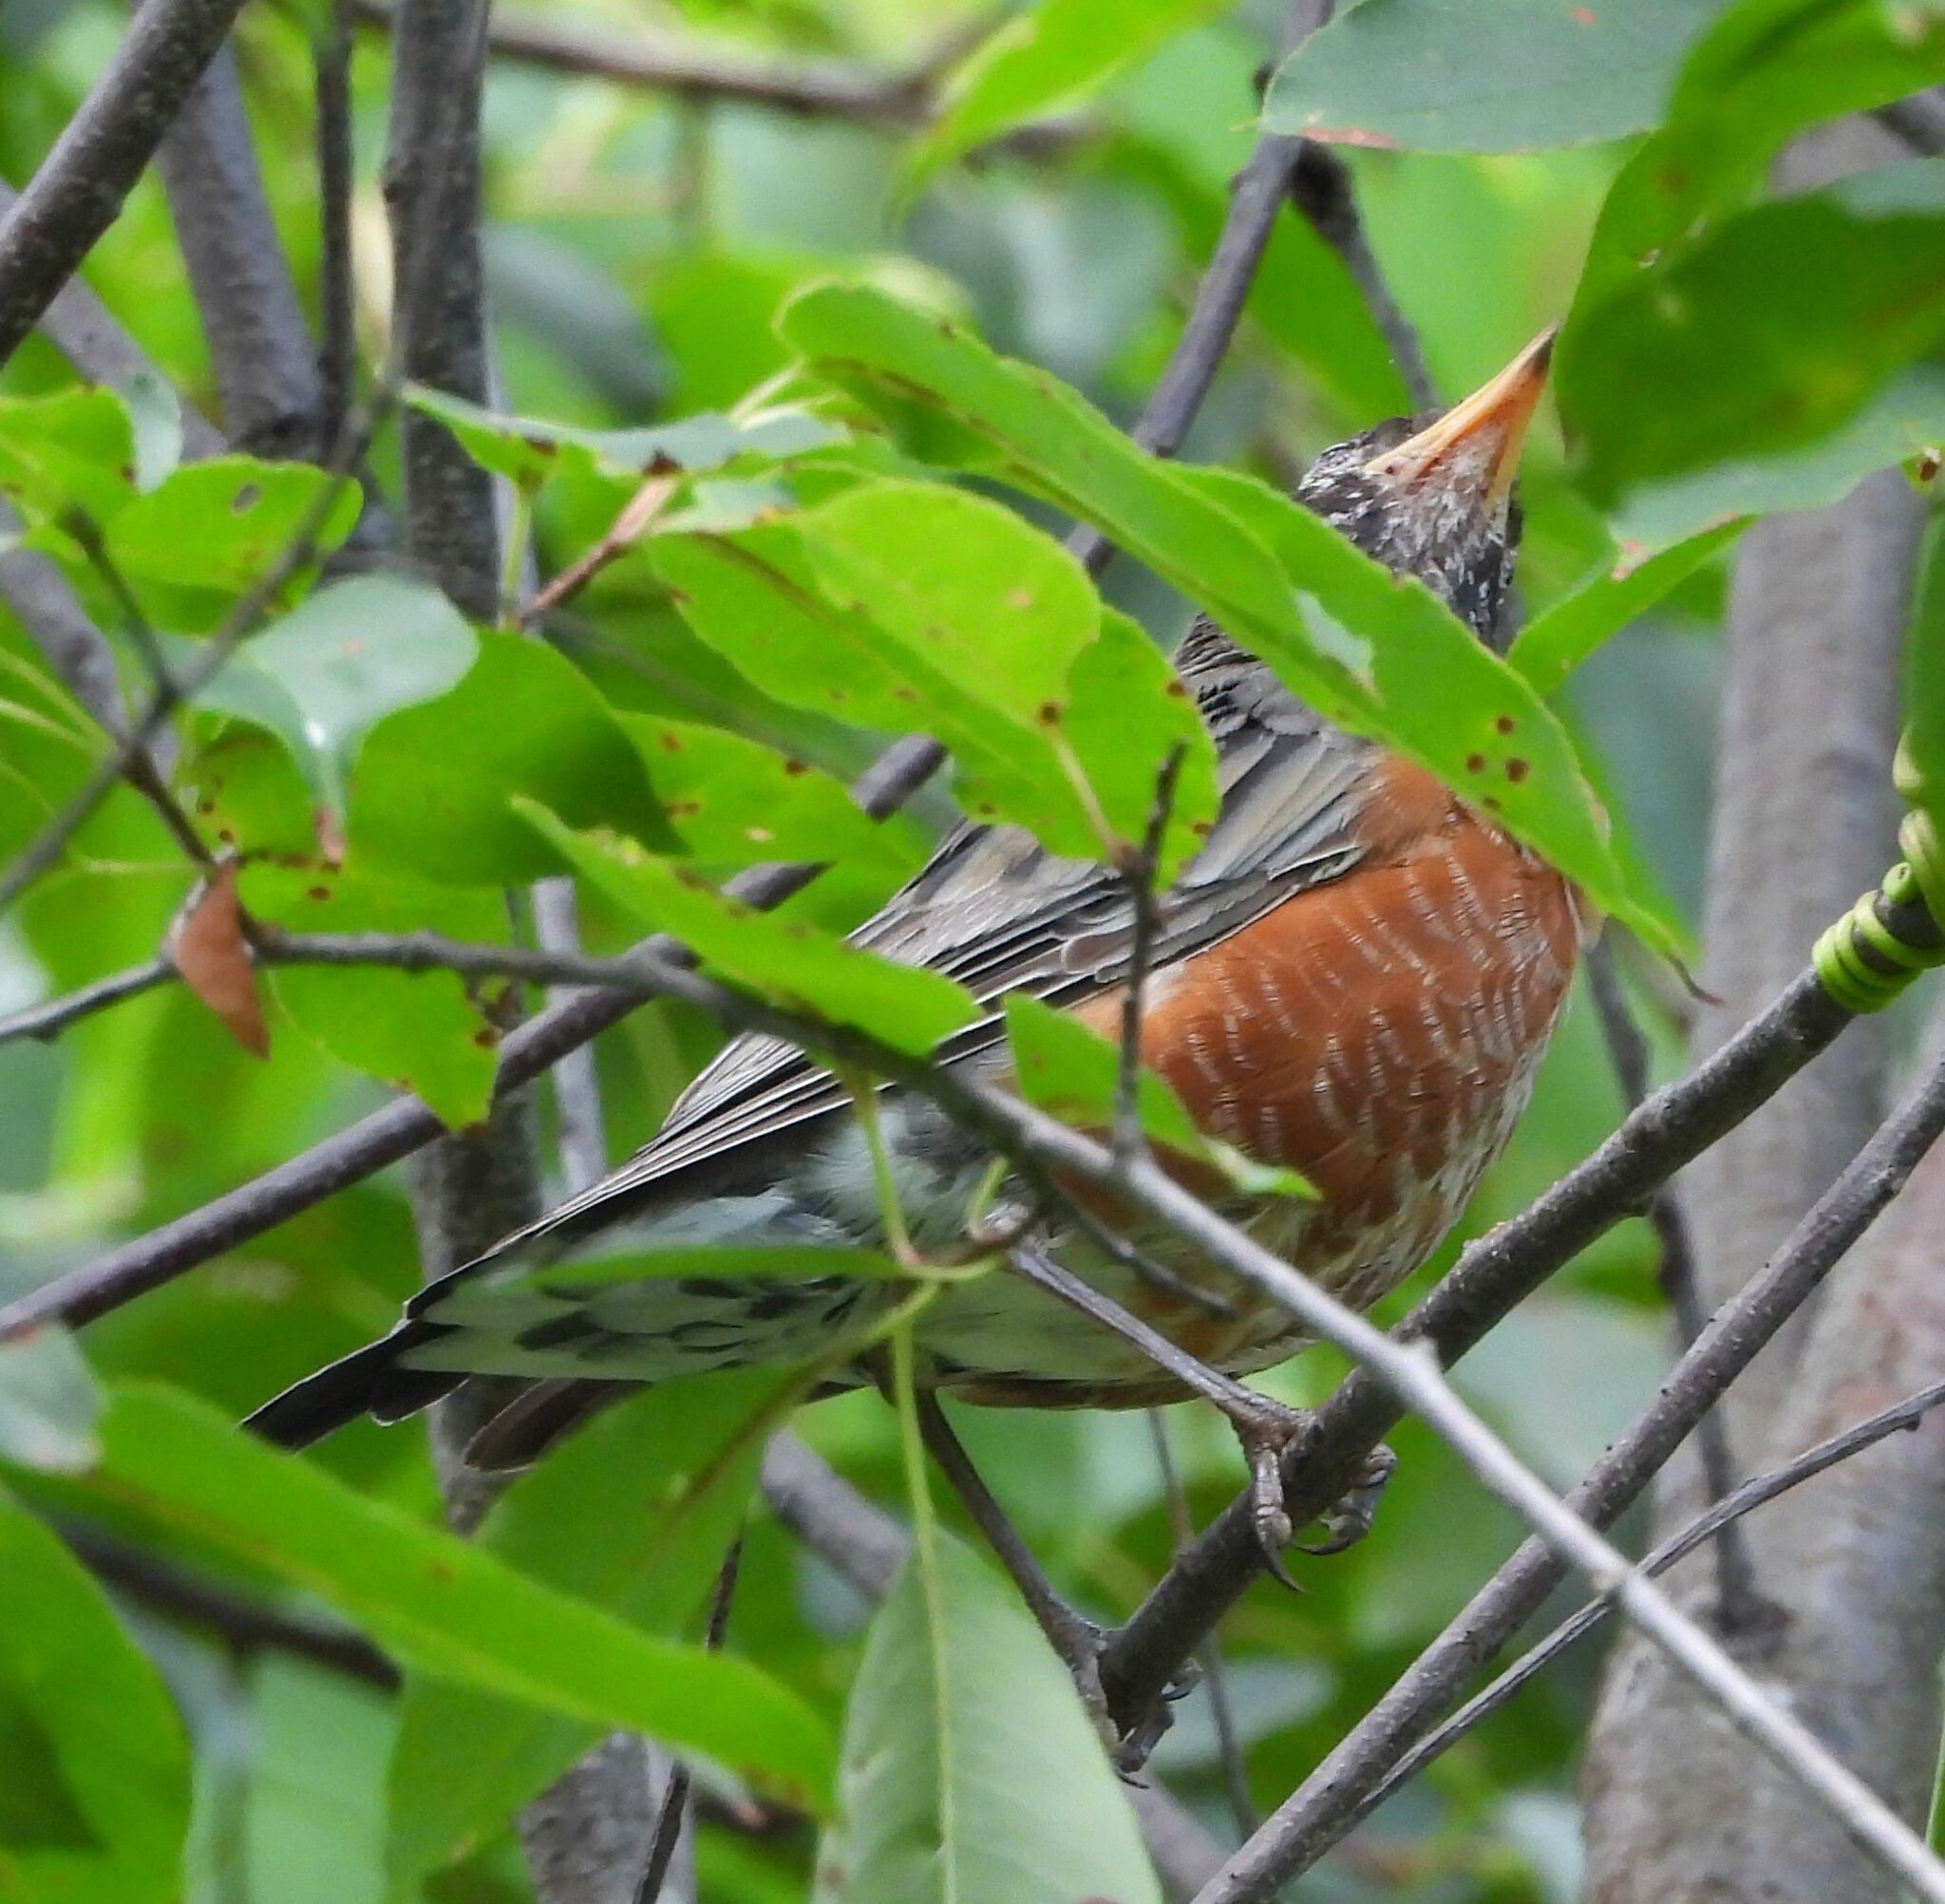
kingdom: Animalia
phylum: Chordata
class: Aves
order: Passeriformes
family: Turdidae
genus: Turdus
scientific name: Turdus migratorius
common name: American robin
